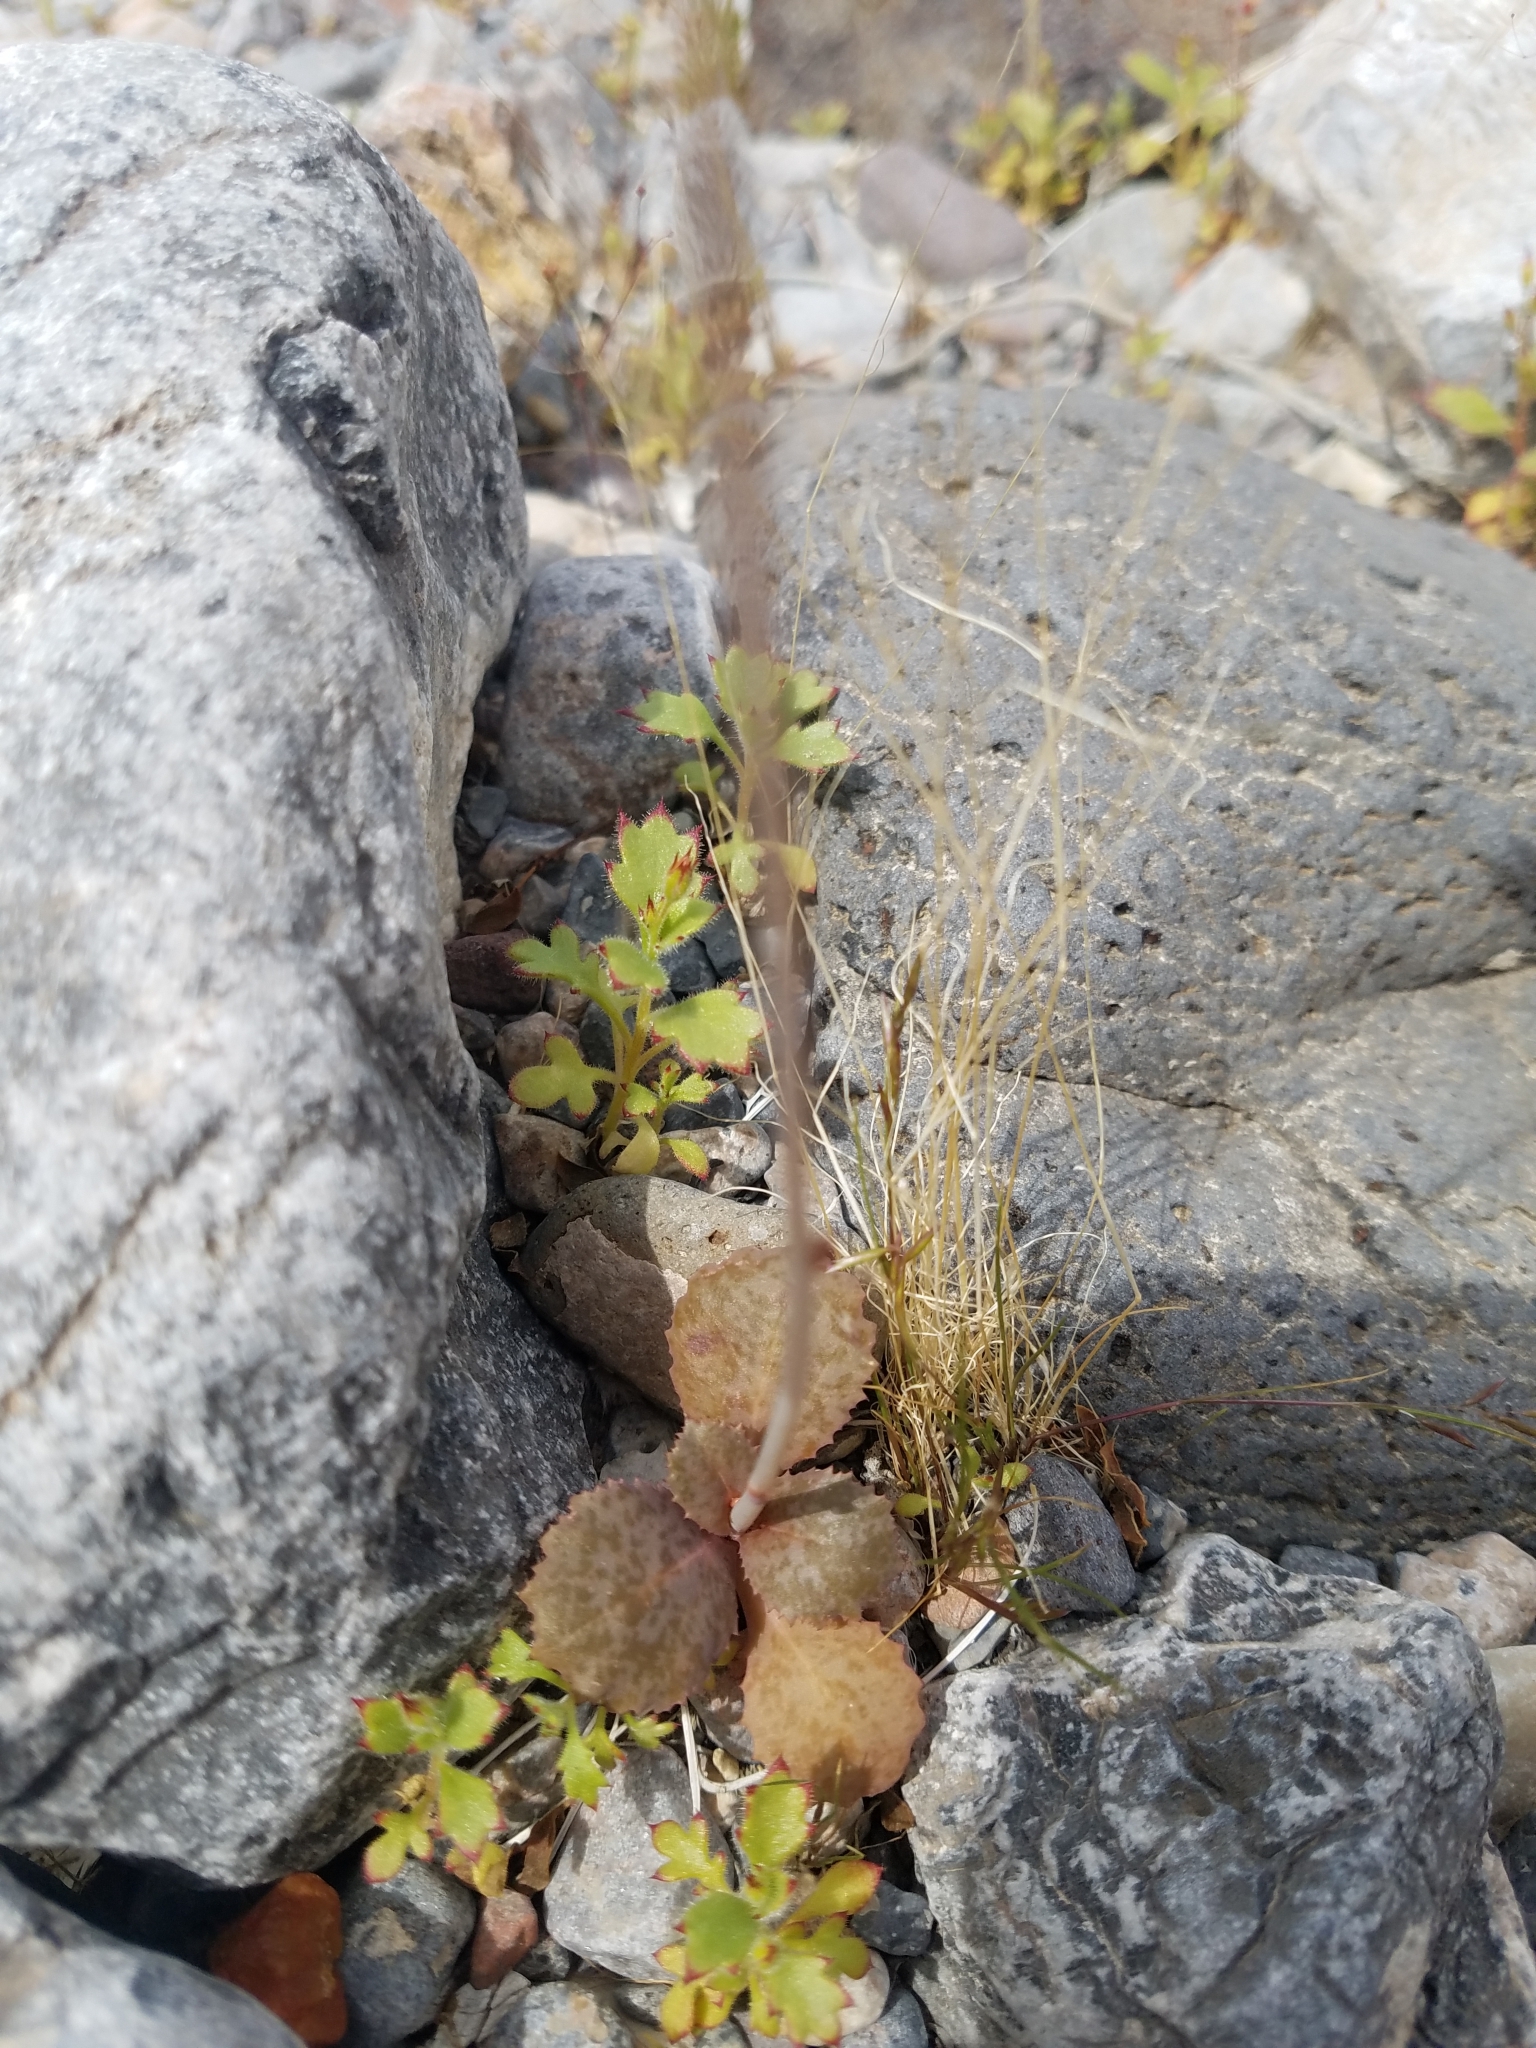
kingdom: Plantae
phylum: Tracheophyta
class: Magnoliopsida
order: Asterales
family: Asteraceae
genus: Atrichoseris
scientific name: Atrichoseris platyphylla
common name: Tobaccoweed
